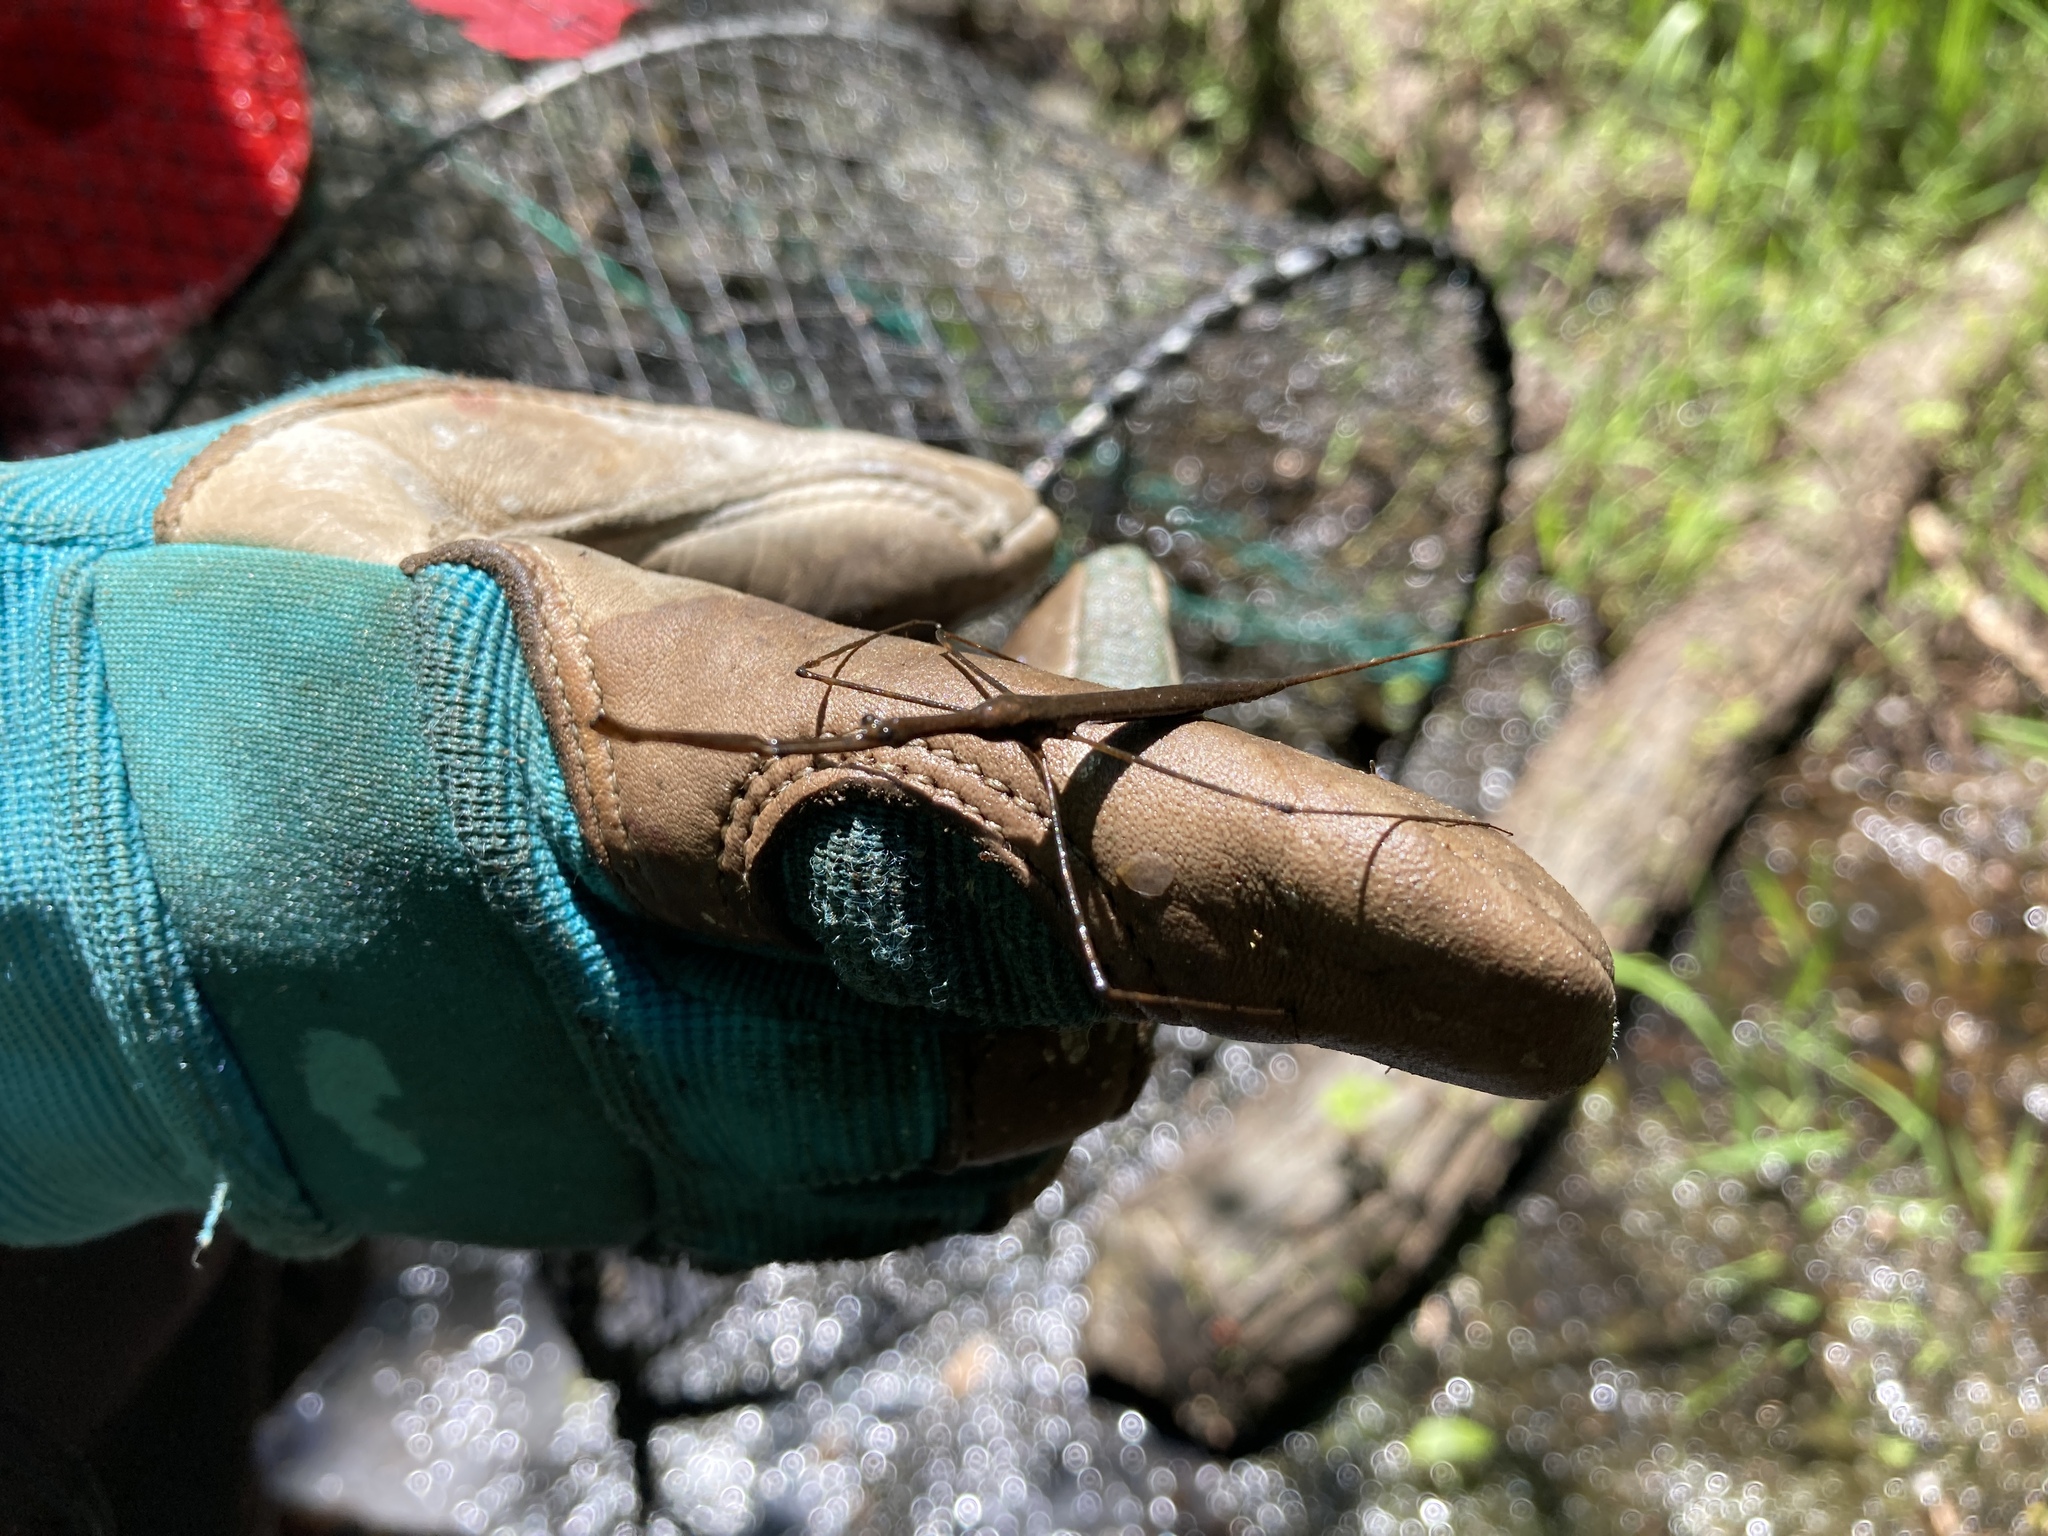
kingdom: Animalia
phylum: Arthropoda
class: Insecta
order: Hemiptera
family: Nepidae
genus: Ranatra
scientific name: Ranatra
